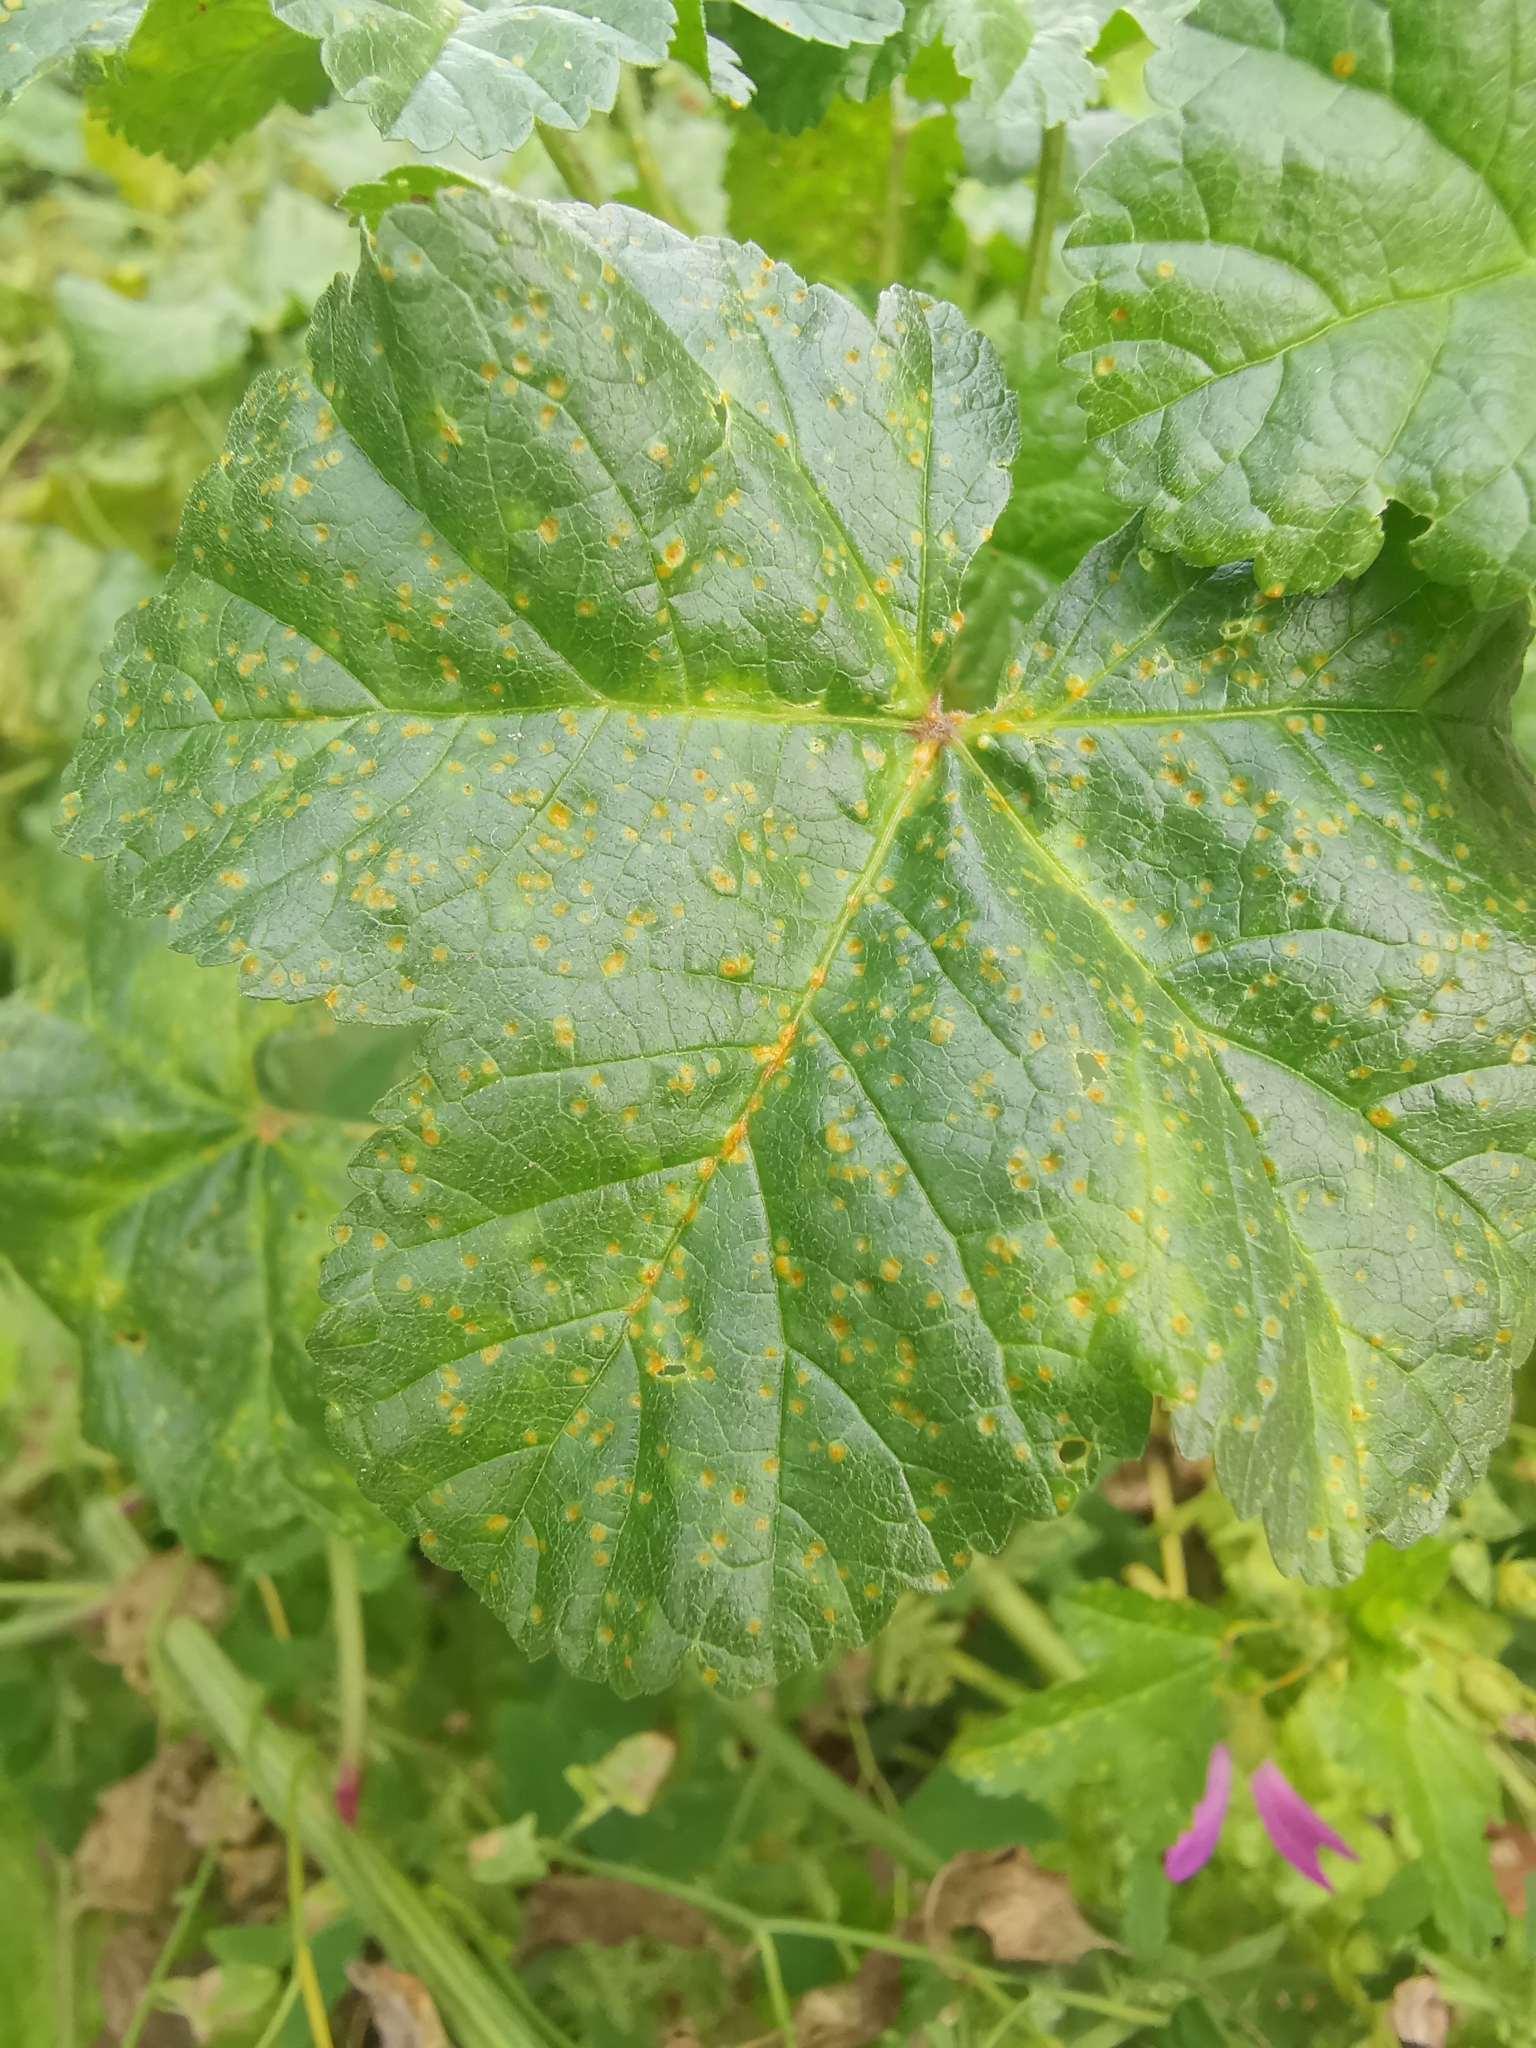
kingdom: Fungi
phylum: Basidiomycota
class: Pucciniomycetes
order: Pucciniales
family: Pucciniaceae
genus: Puccinia
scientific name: Puccinia malvacearum
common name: Hollyhock rust
